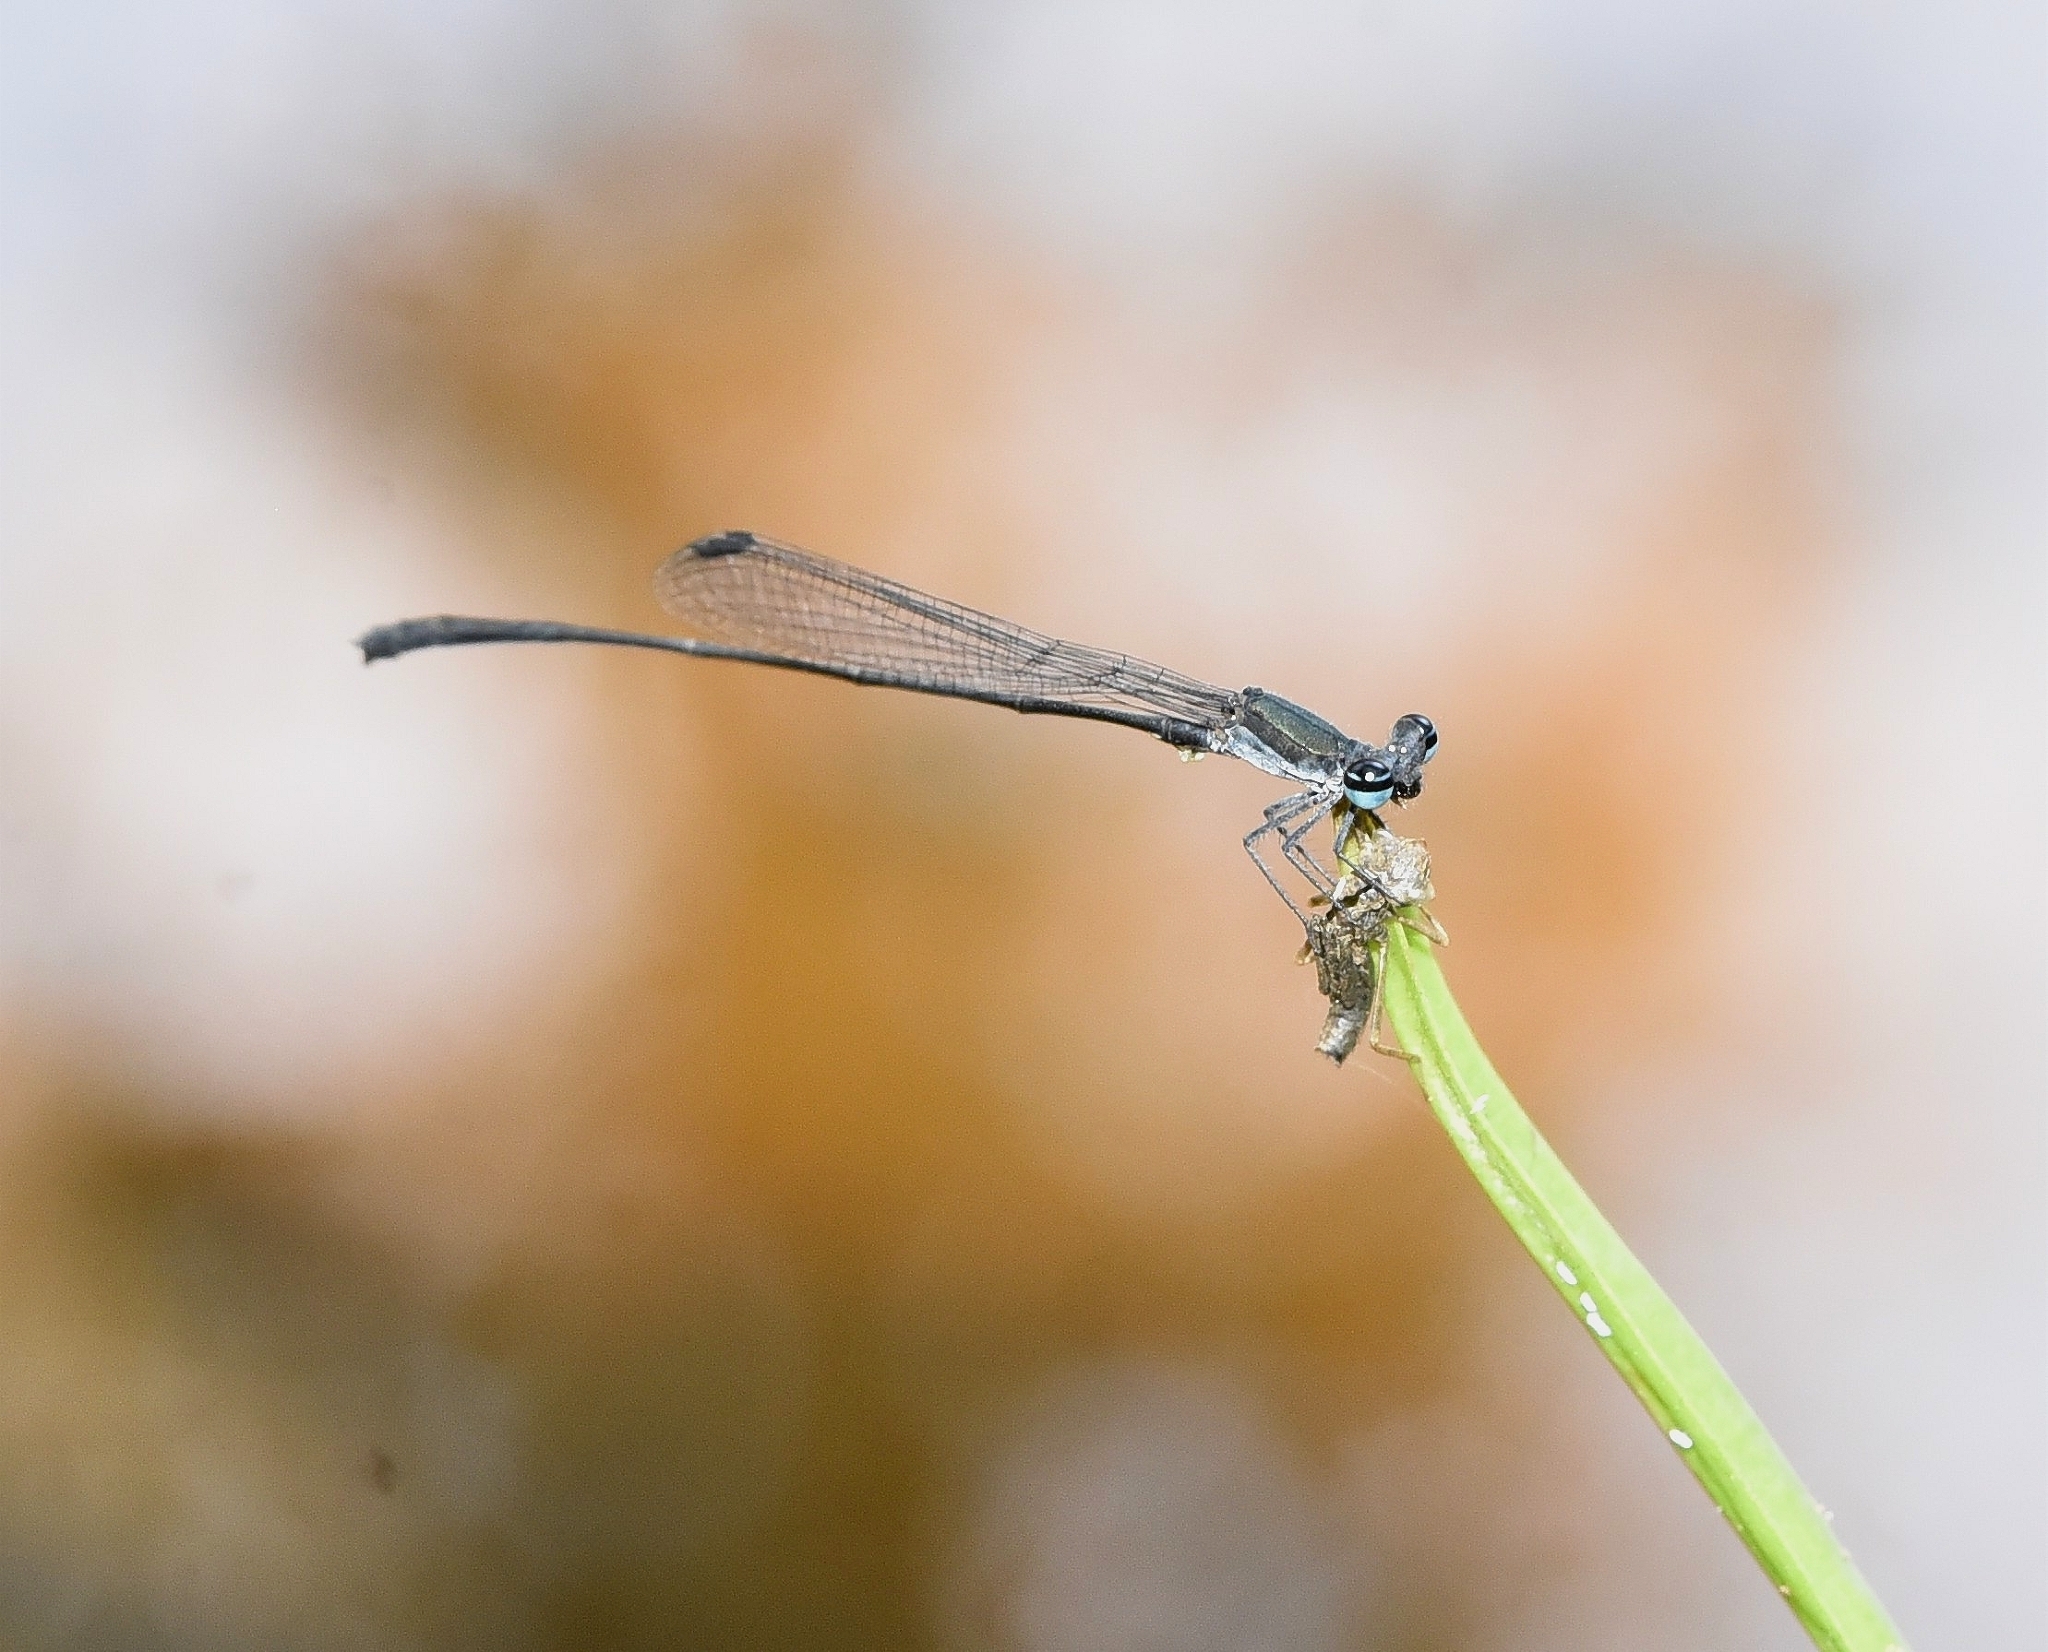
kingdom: Animalia
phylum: Arthropoda
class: Insecta
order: Odonata
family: Platycnemididae
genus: Elattoneura
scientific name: Elattoneura tetrica
